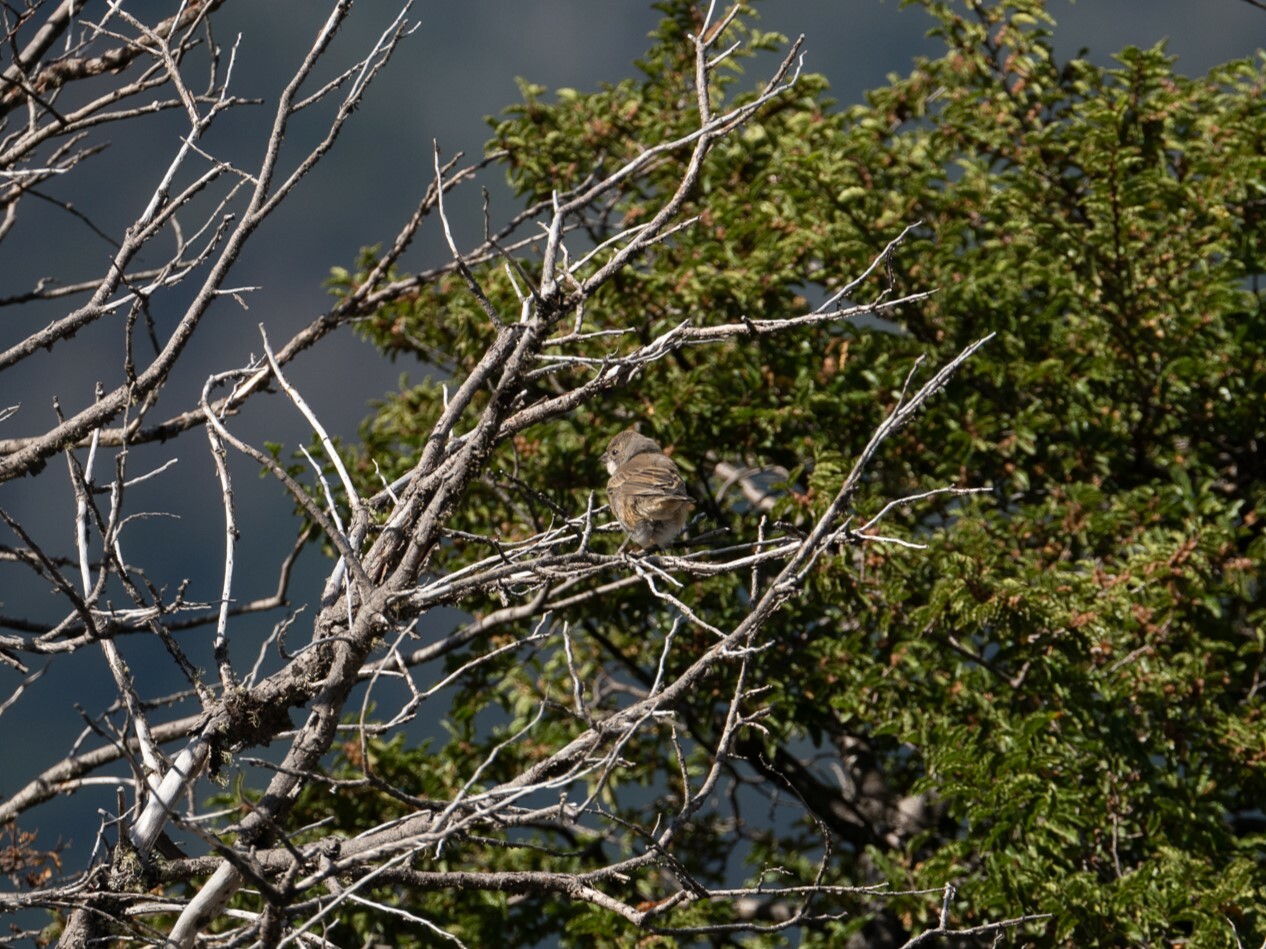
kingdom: Animalia
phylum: Chordata
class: Aves
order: Passeriformes
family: Thraupidae
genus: Diuca
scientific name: Diuca diuca
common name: Common diuca finch
